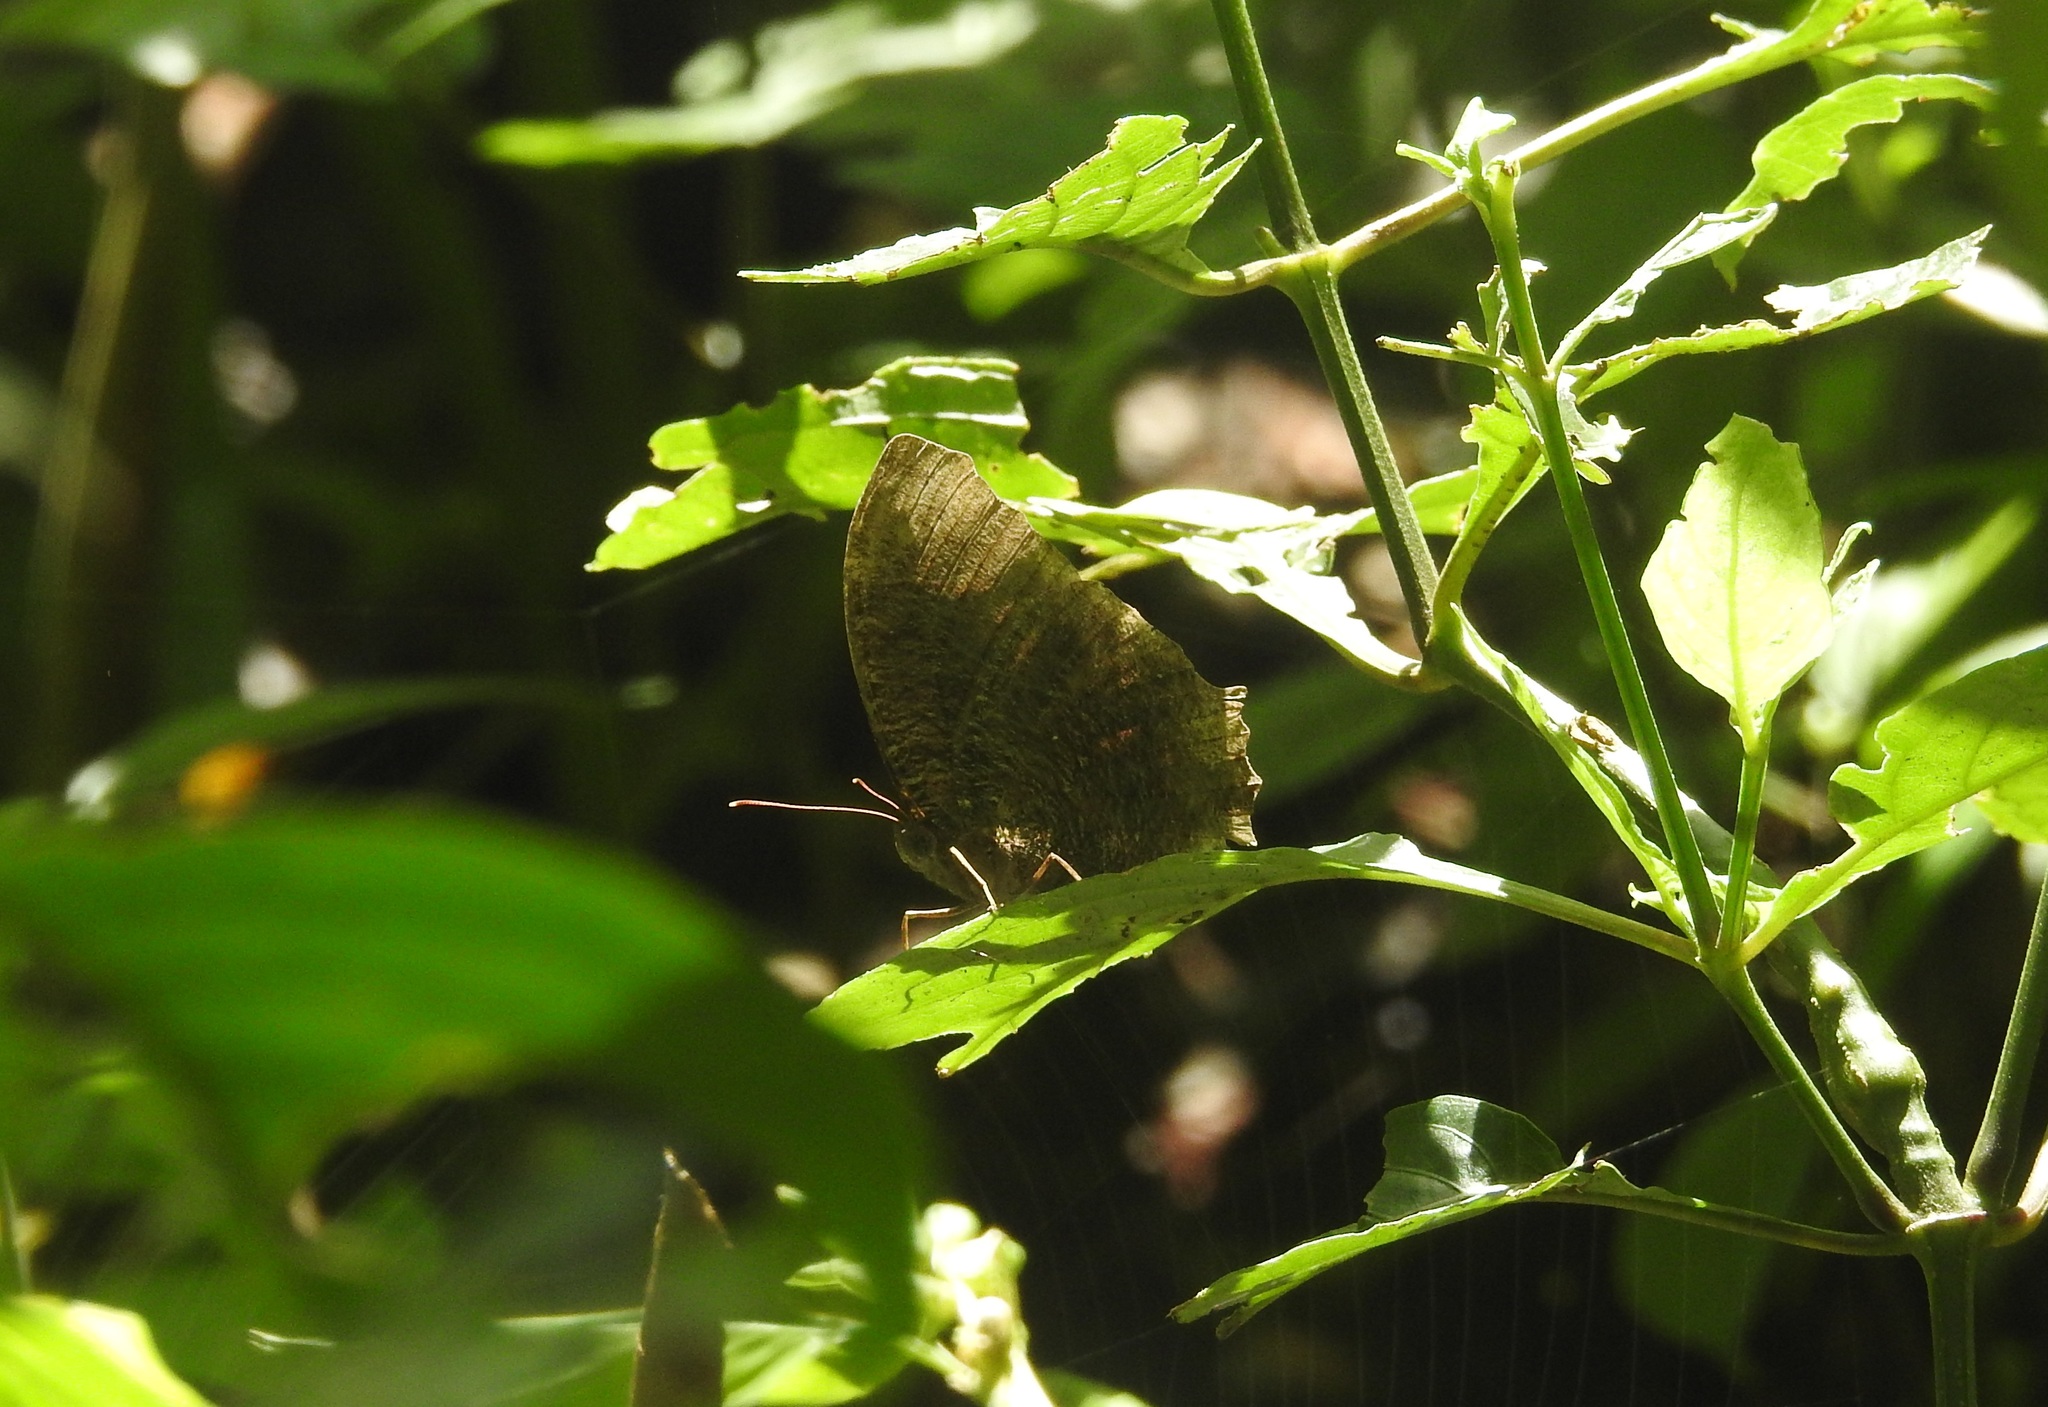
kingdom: Animalia
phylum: Arthropoda
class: Insecta
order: Lepidoptera
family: Nymphalidae
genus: Elymnias
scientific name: Elymnias hypermnestra
